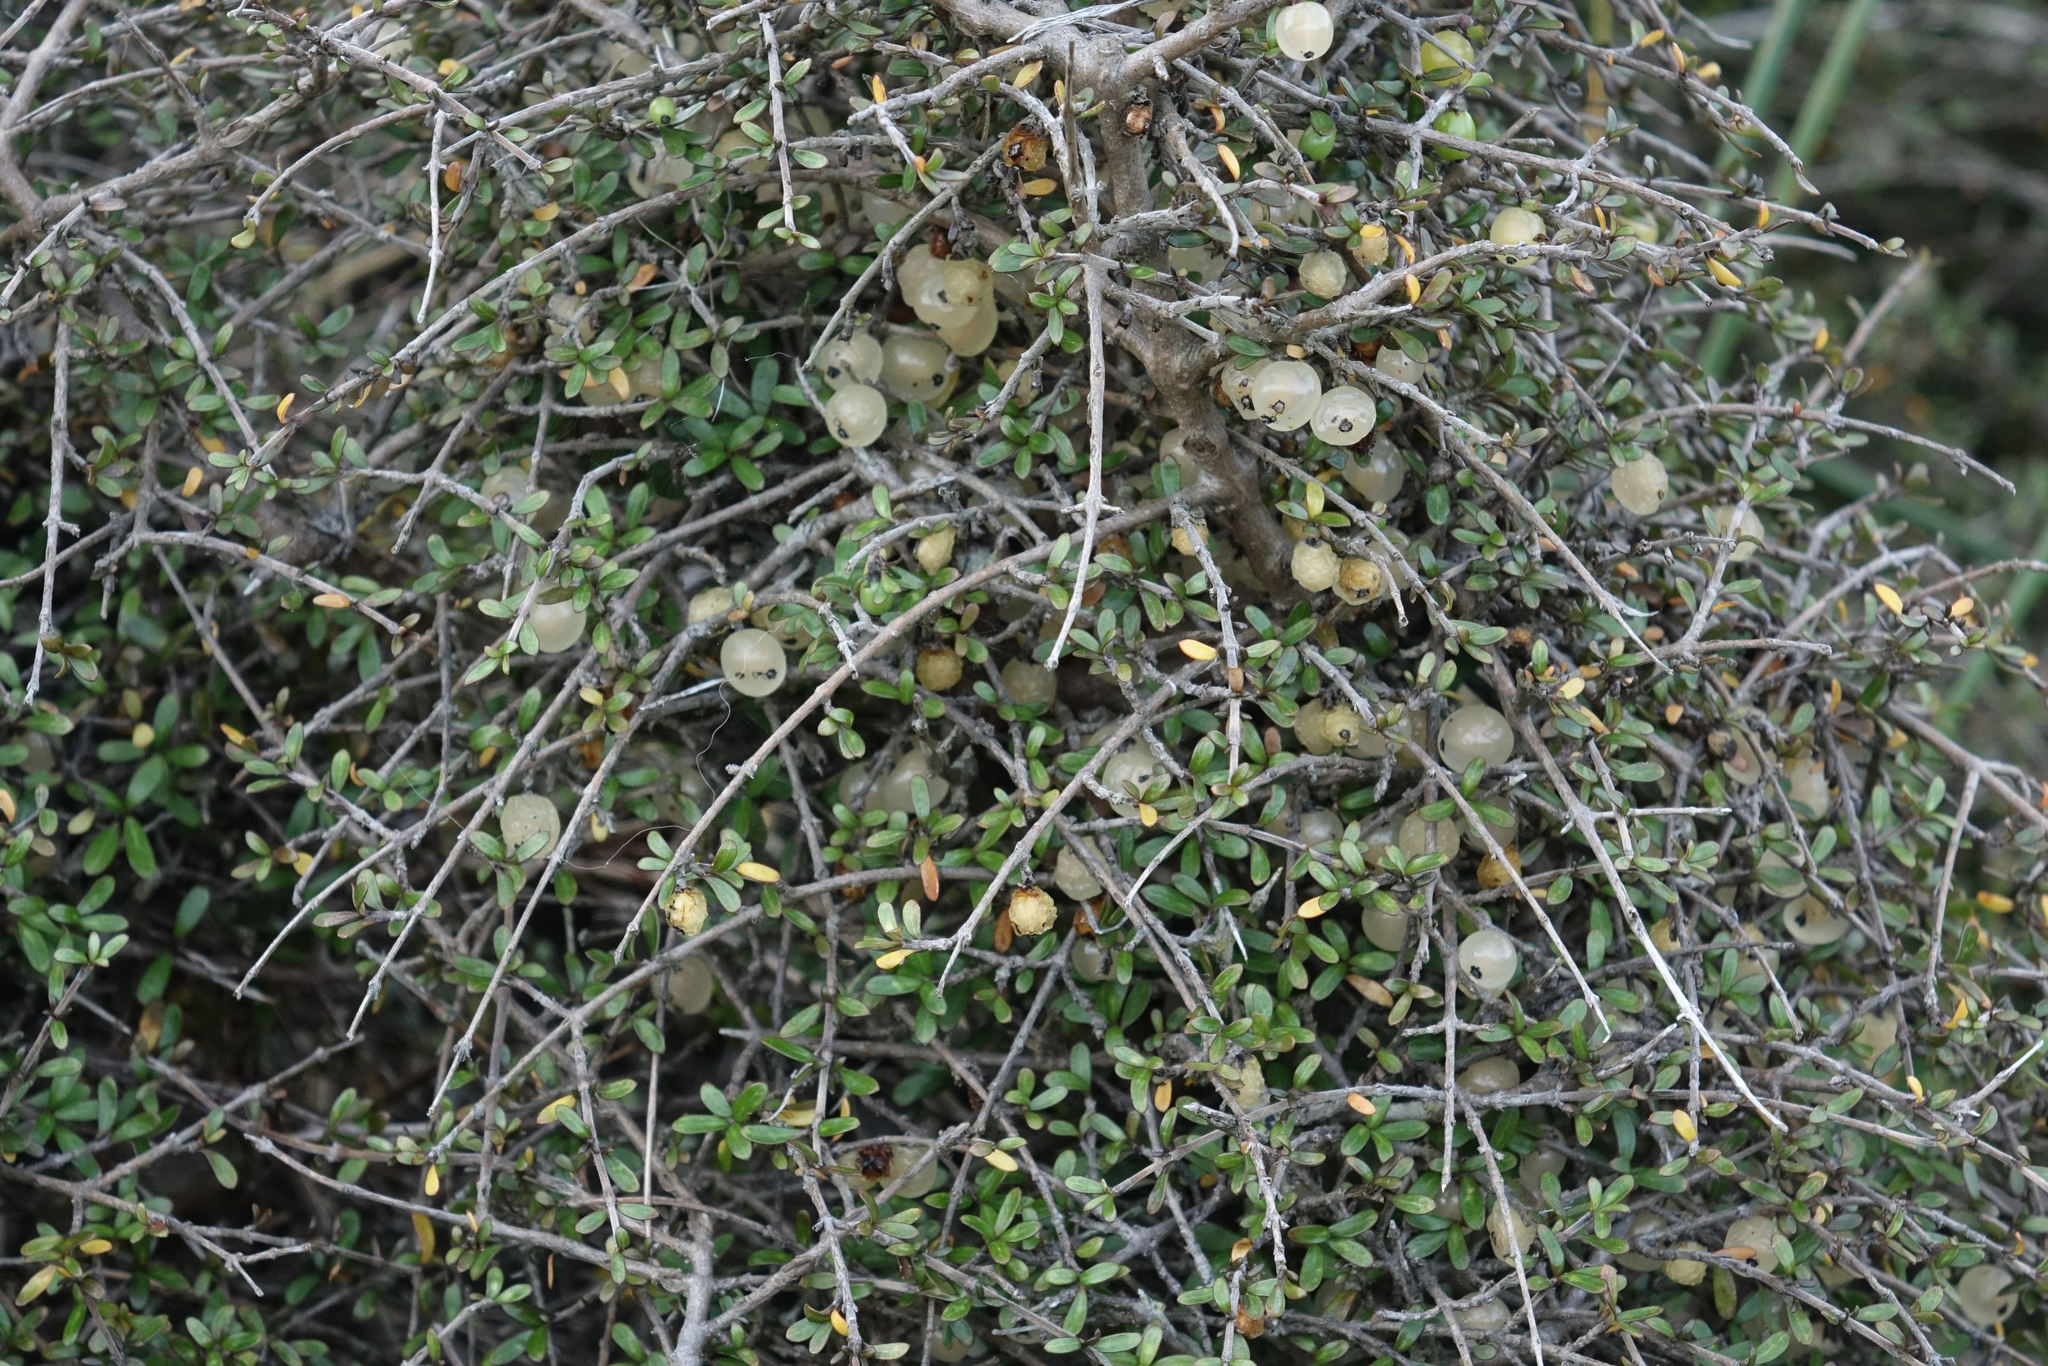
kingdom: Plantae
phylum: Tracheophyta
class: Magnoliopsida
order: Gentianales
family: Rubiaceae
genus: Coprosma
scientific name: Coprosma dumosa
